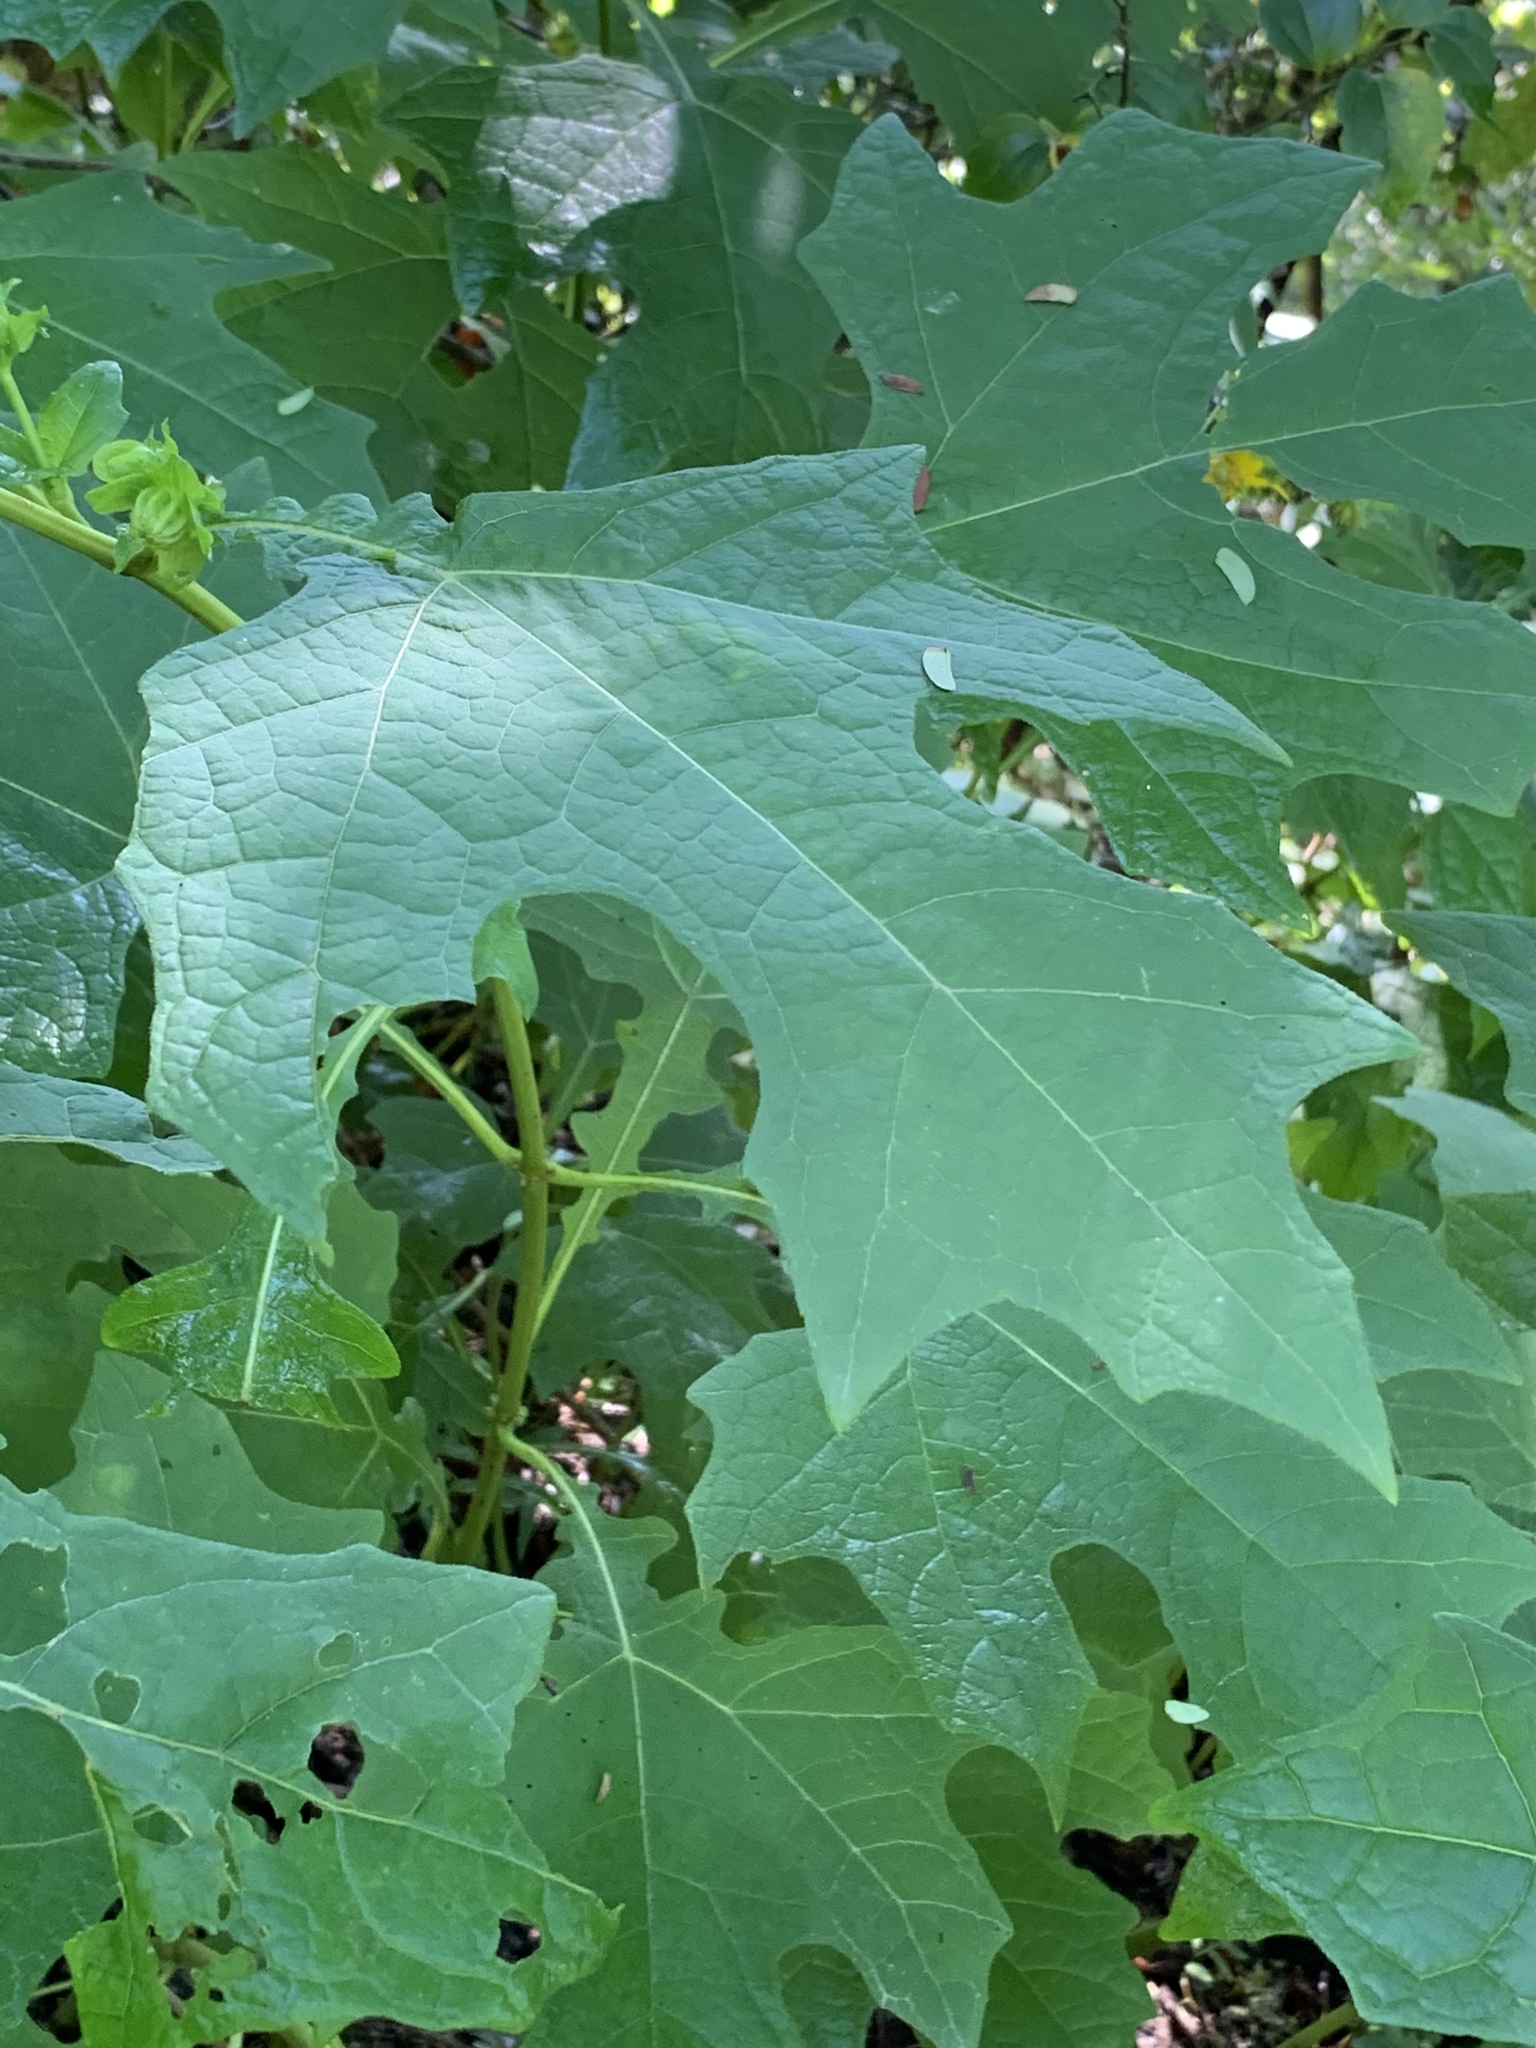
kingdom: Plantae
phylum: Tracheophyta
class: Magnoliopsida
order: Asterales
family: Asteraceae
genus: Smallanthus
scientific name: Smallanthus uvedalia
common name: Bear's-foot
